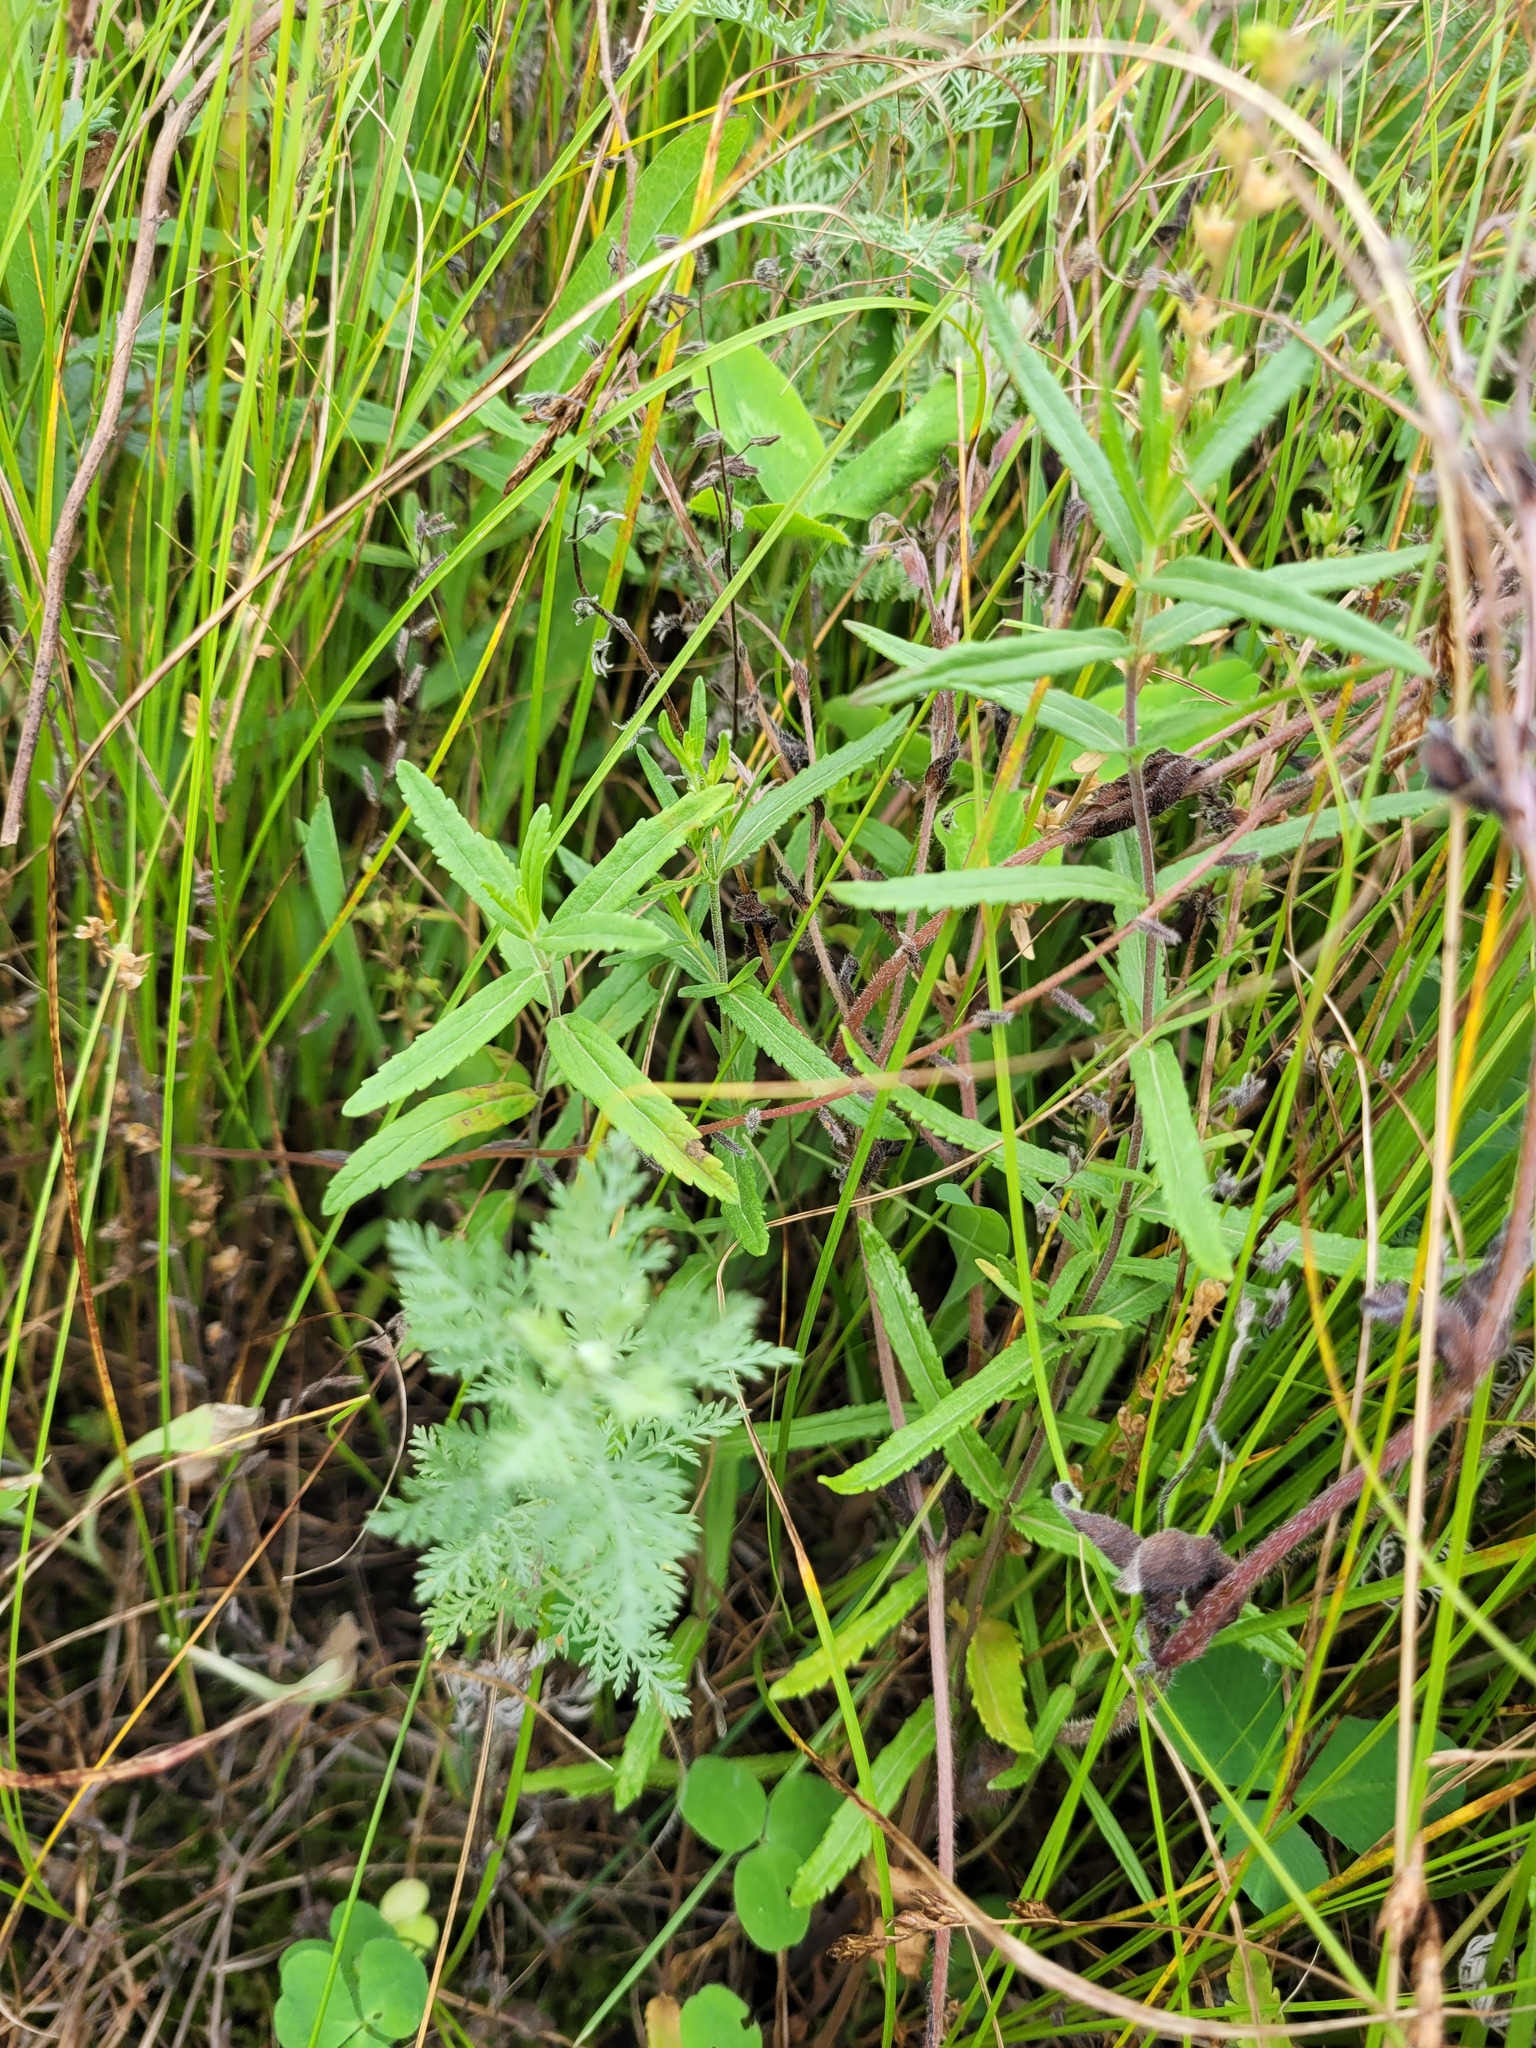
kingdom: Plantae
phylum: Tracheophyta
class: Magnoliopsida
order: Lamiales
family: Plantaginaceae
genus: Veronica
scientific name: Veronica prostrata
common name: Prostrate speedwell
